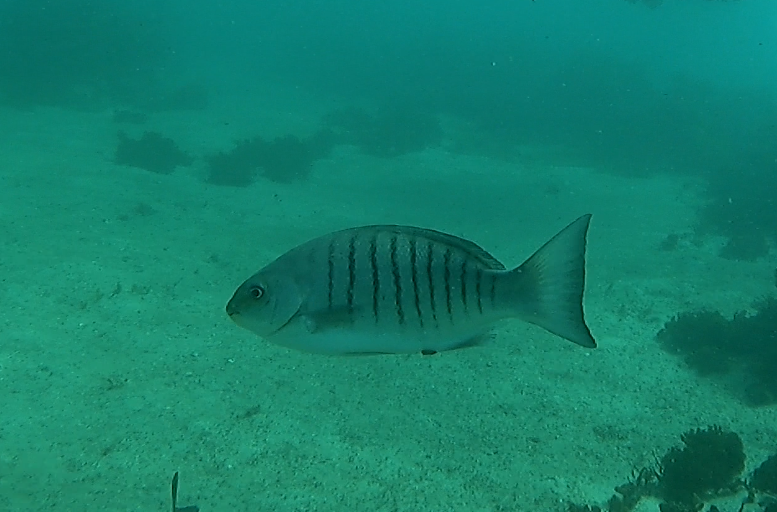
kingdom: Animalia
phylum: Chordata
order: Perciformes
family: Kyphosidae
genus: Girella
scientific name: Girella tricuspidata
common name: Parore
